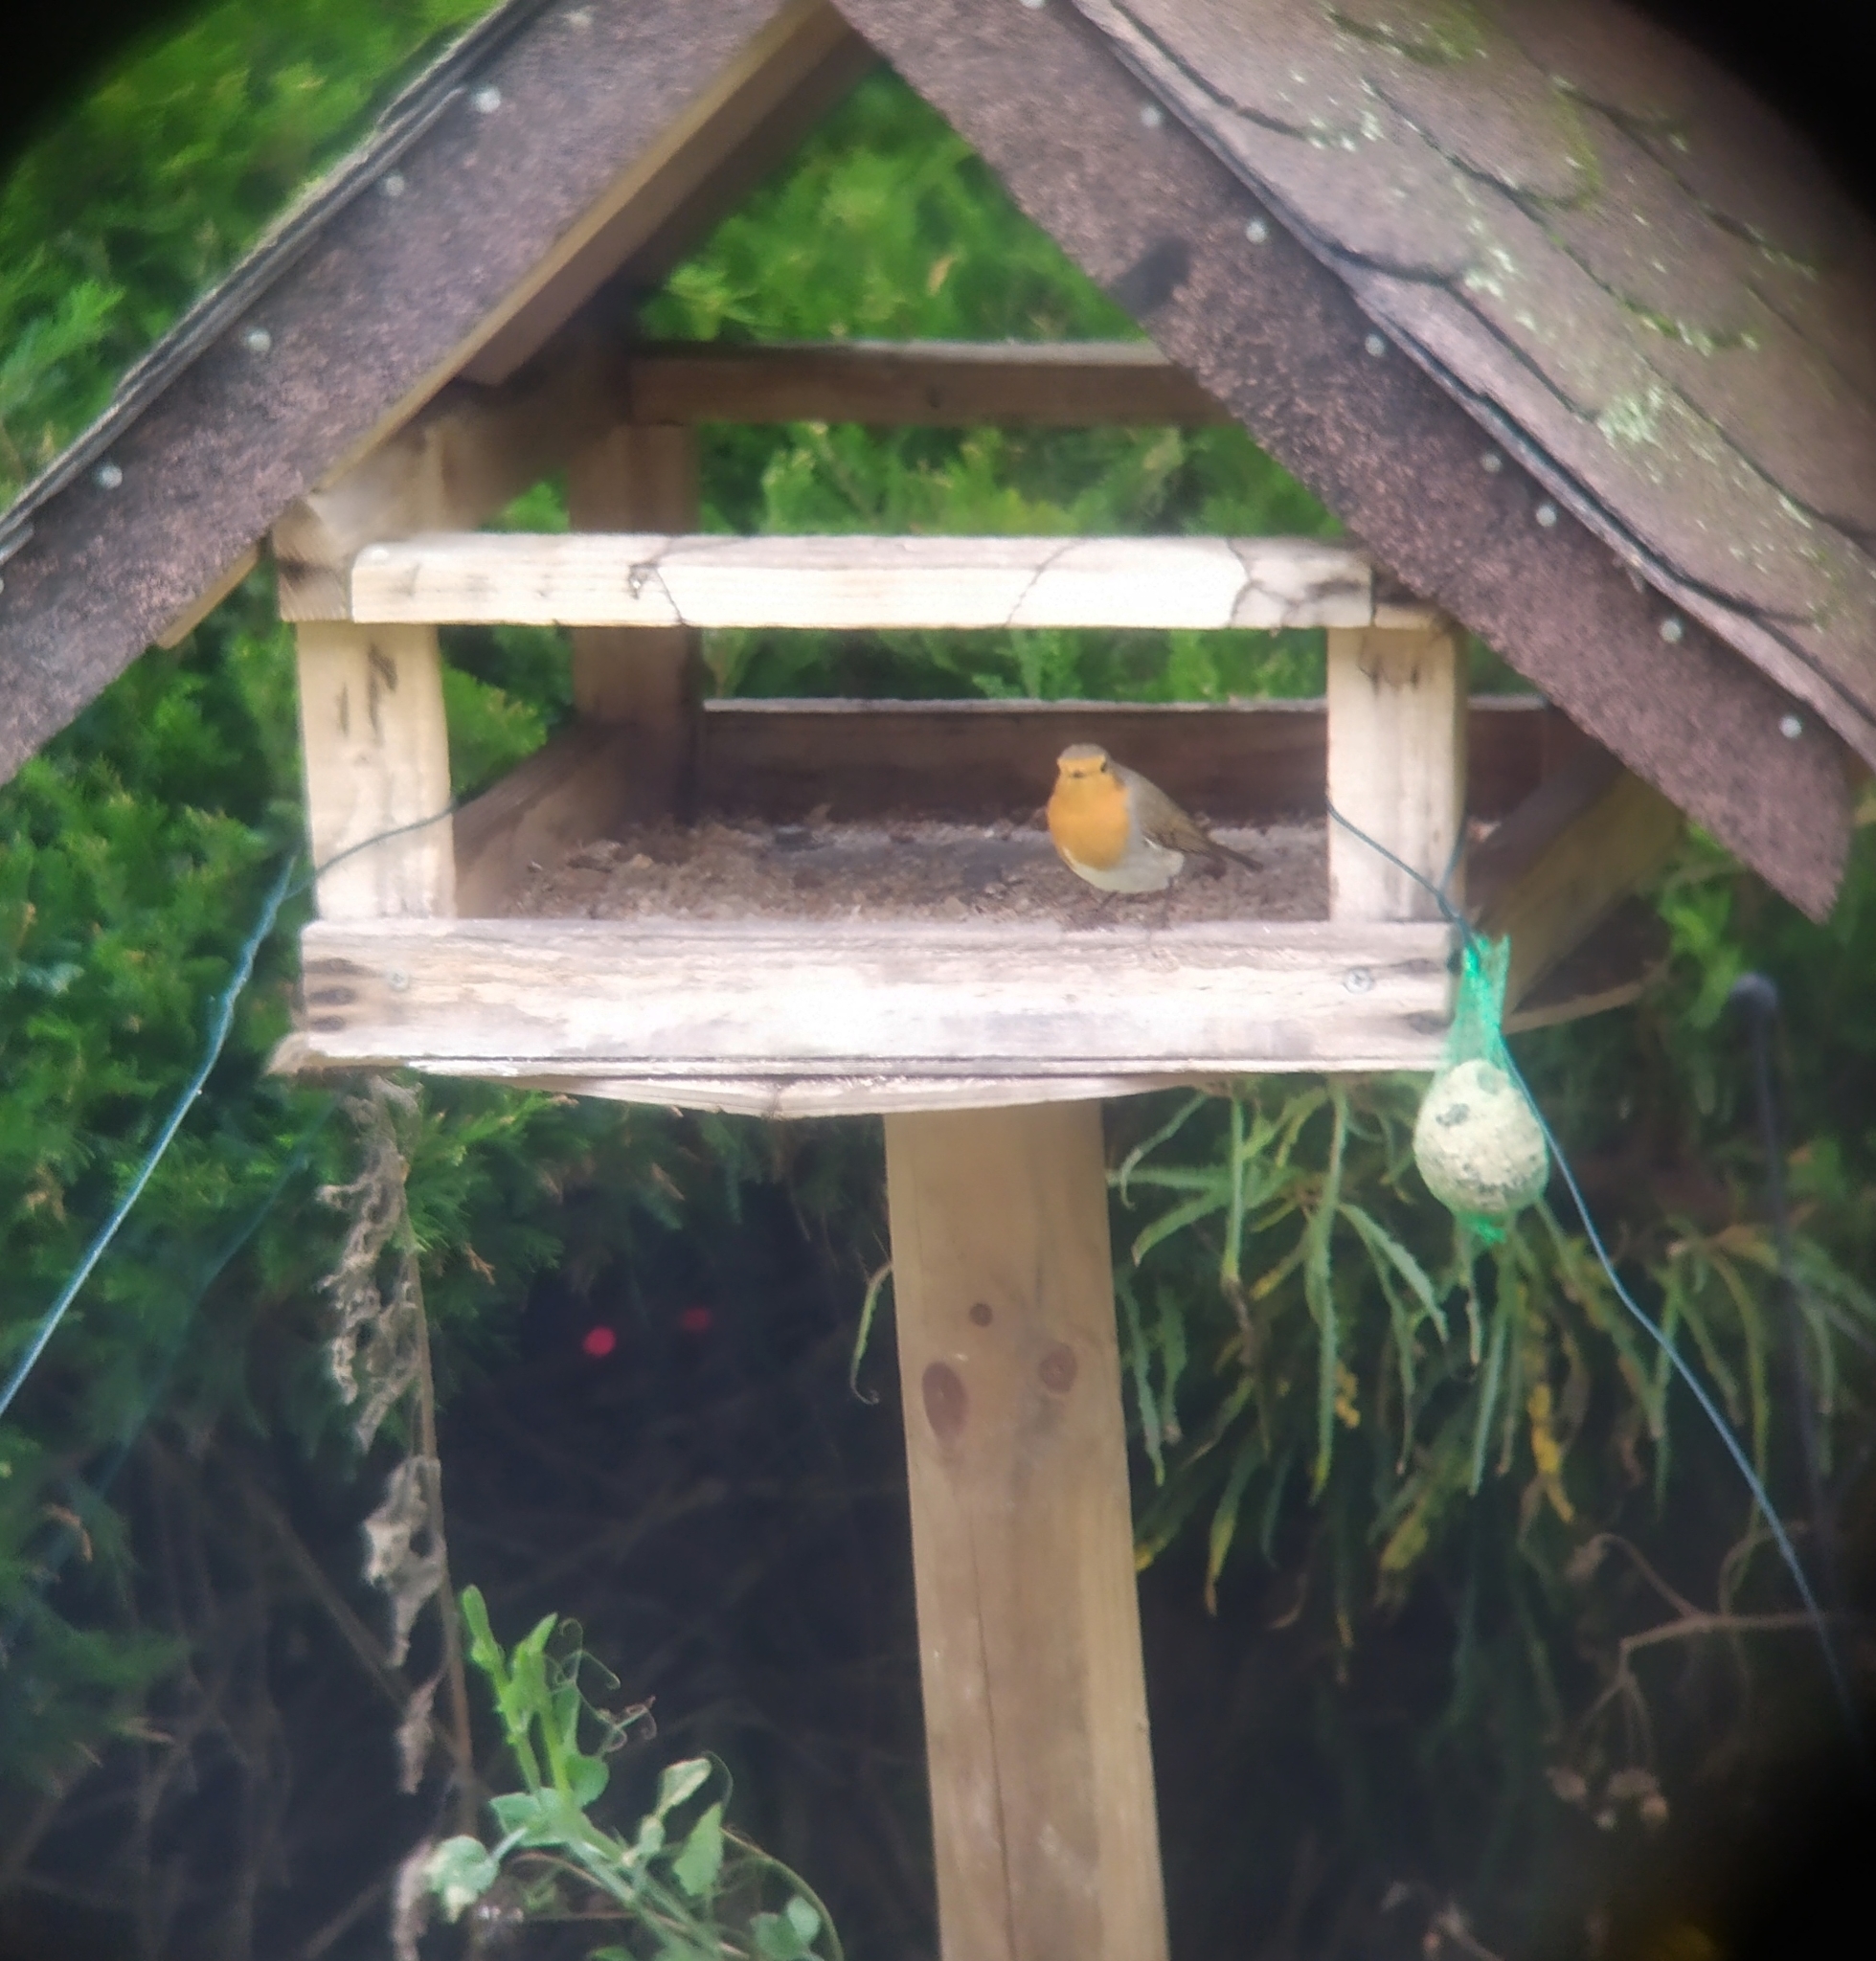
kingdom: Animalia
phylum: Chordata
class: Aves
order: Passeriformes
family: Muscicapidae
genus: Erithacus
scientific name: Erithacus rubecula
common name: European robin
